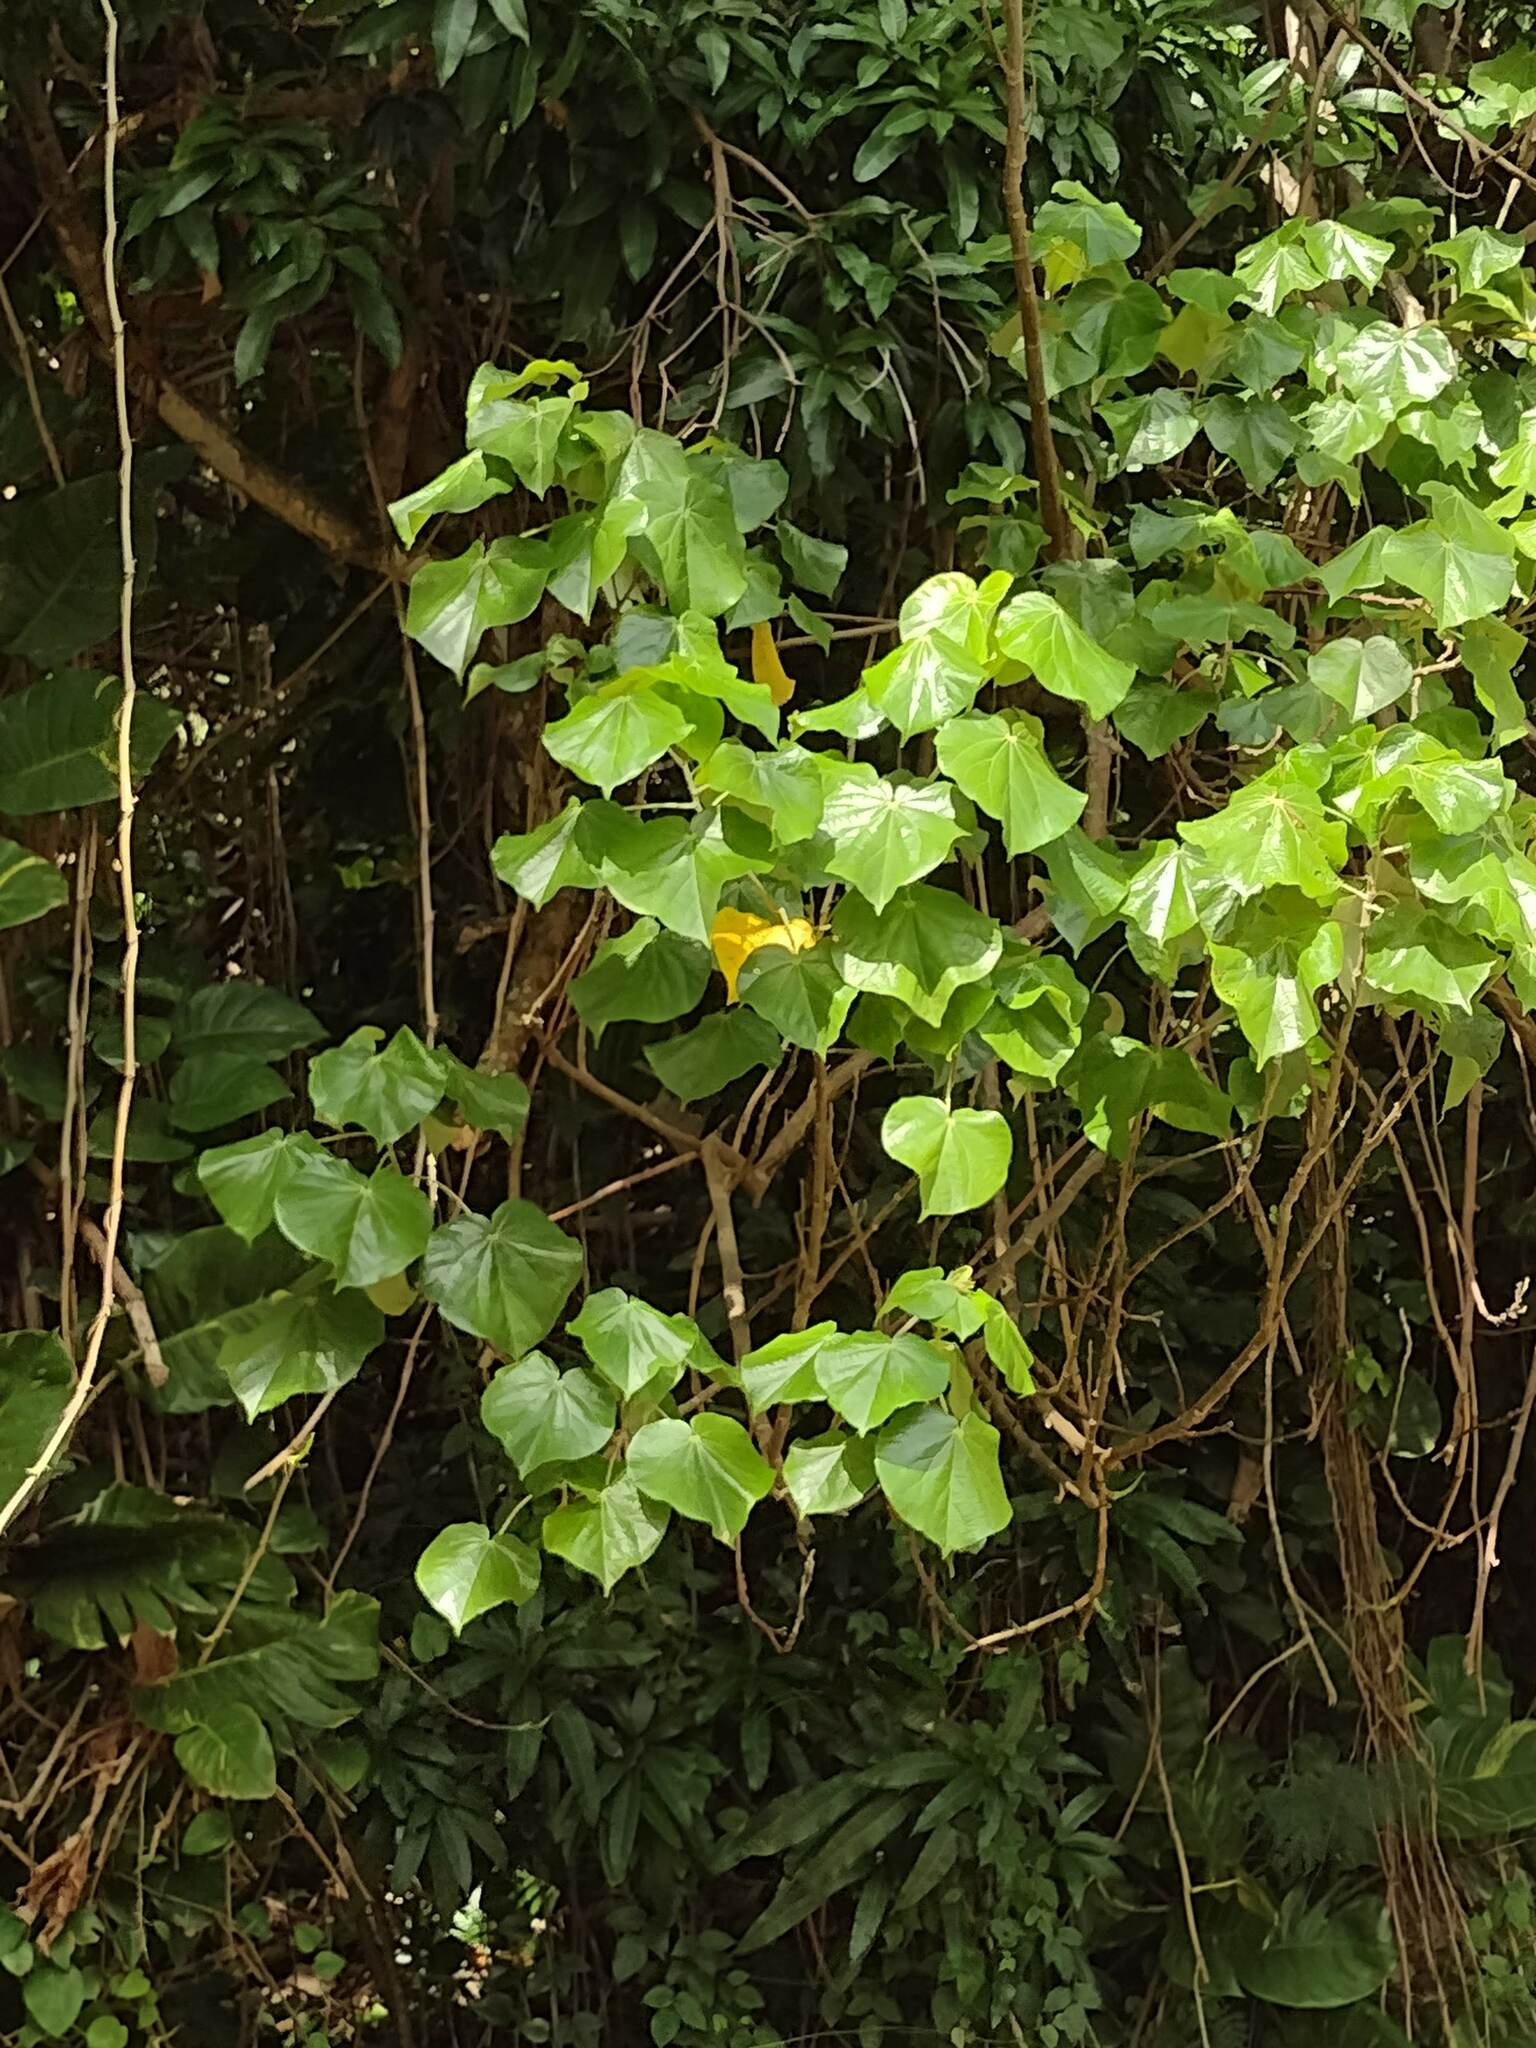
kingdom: Plantae
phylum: Tracheophyta
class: Magnoliopsida
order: Malvales
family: Malvaceae
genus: Talipariti
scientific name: Talipariti tiliaceum
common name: Sea hibiscus
